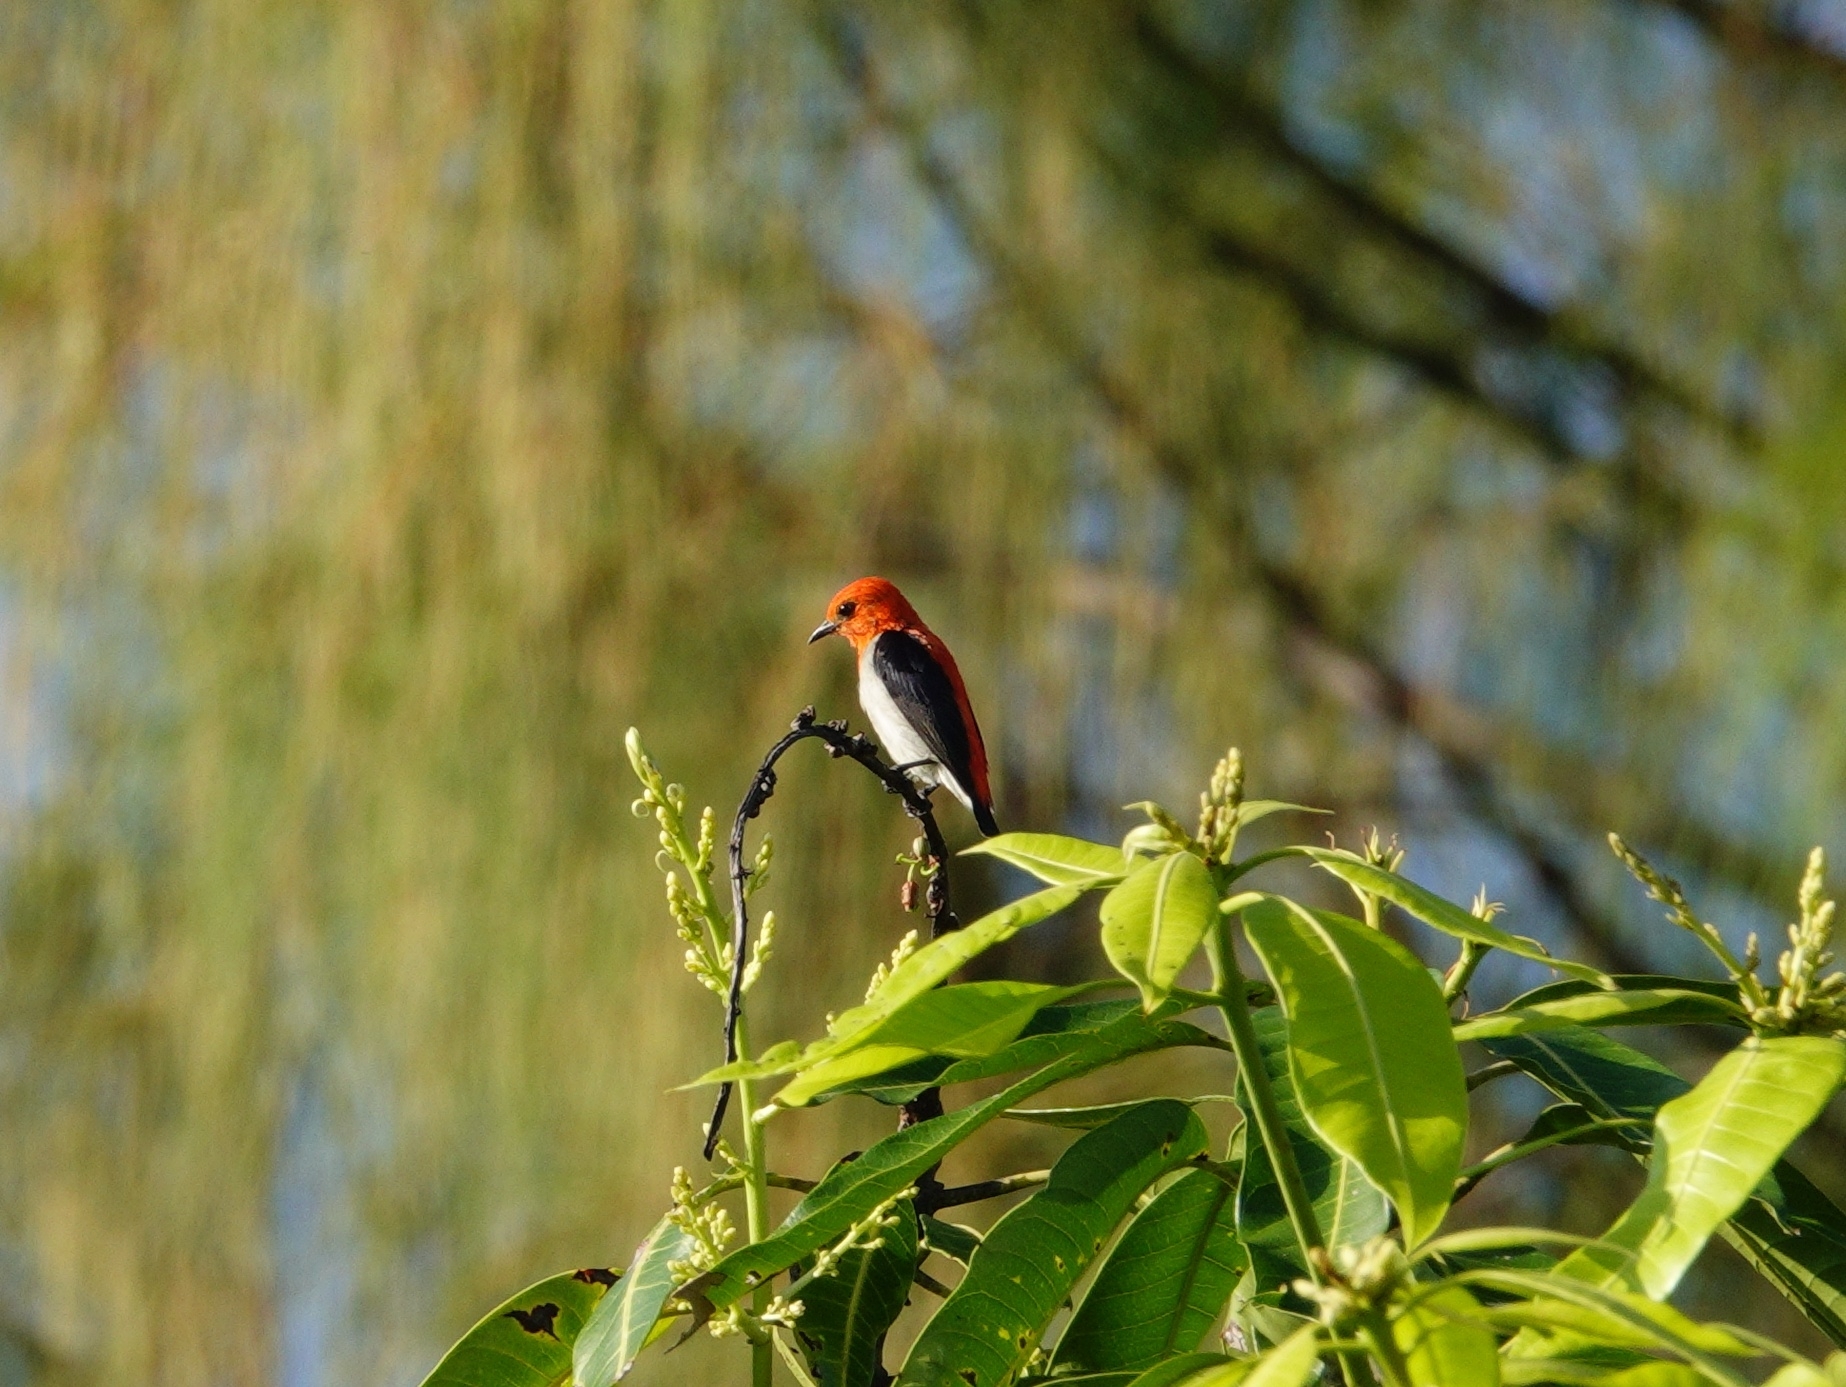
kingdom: Animalia
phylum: Chordata
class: Aves
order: Passeriformes
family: Dicaeidae
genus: Dicaeum
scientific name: Dicaeum trochileum
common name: Scarlet-headed flowerpecker
